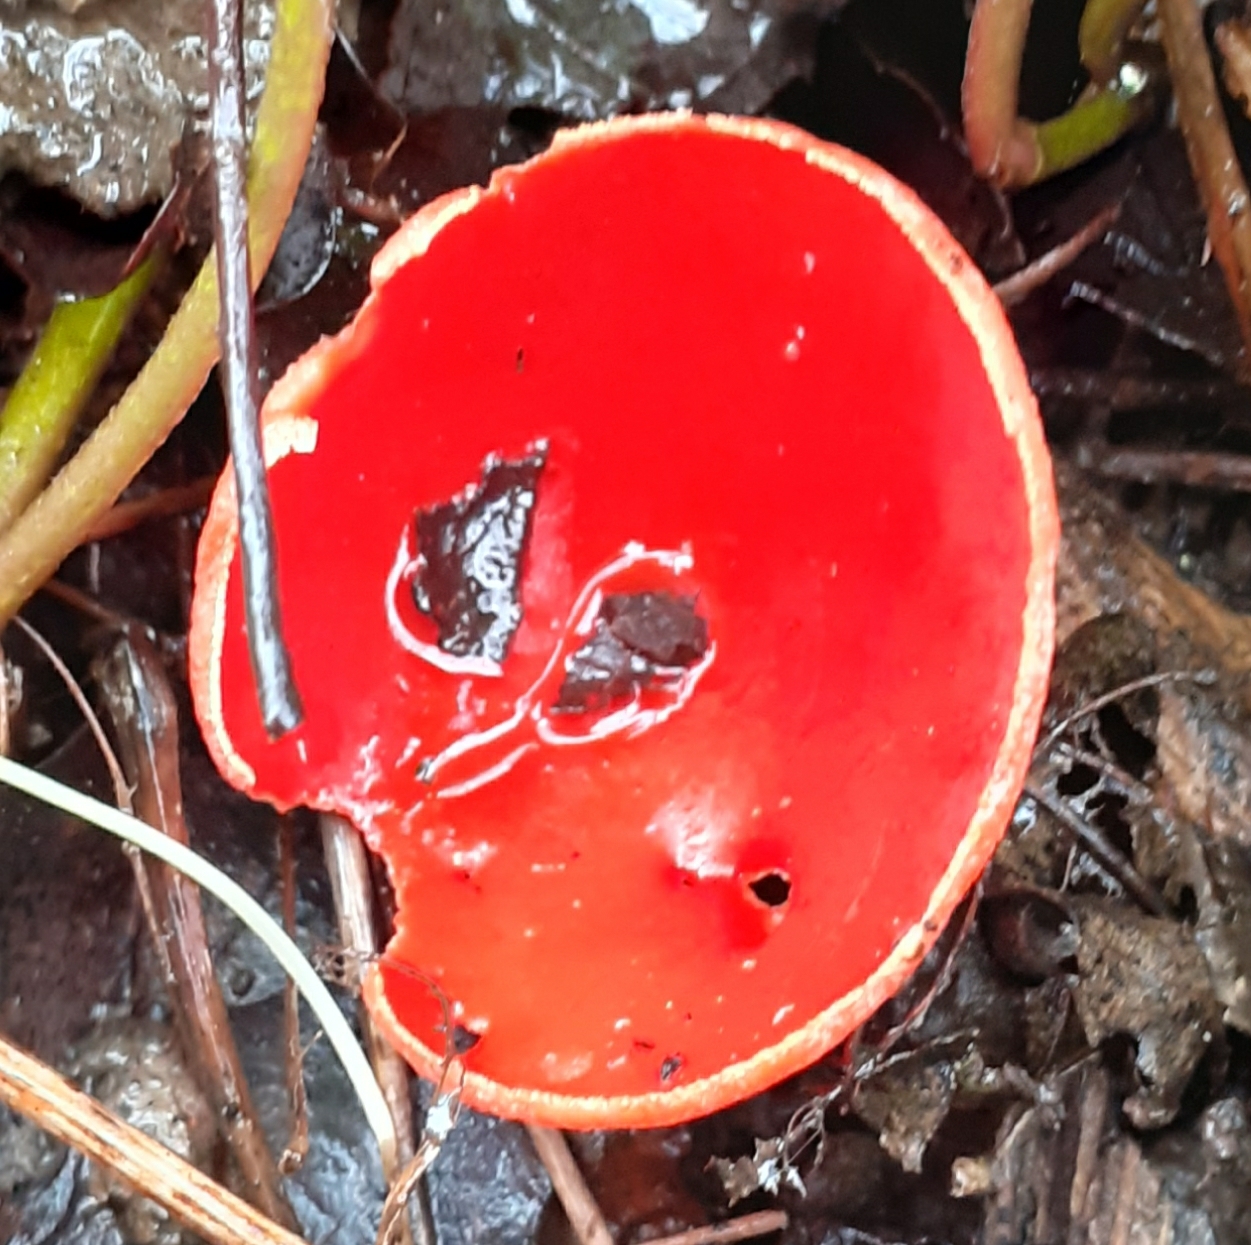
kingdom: Fungi
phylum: Ascomycota
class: Pezizomycetes
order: Pezizales
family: Sarcoscyphaceae
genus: Sarcoscypha
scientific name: Sarcoscypha
